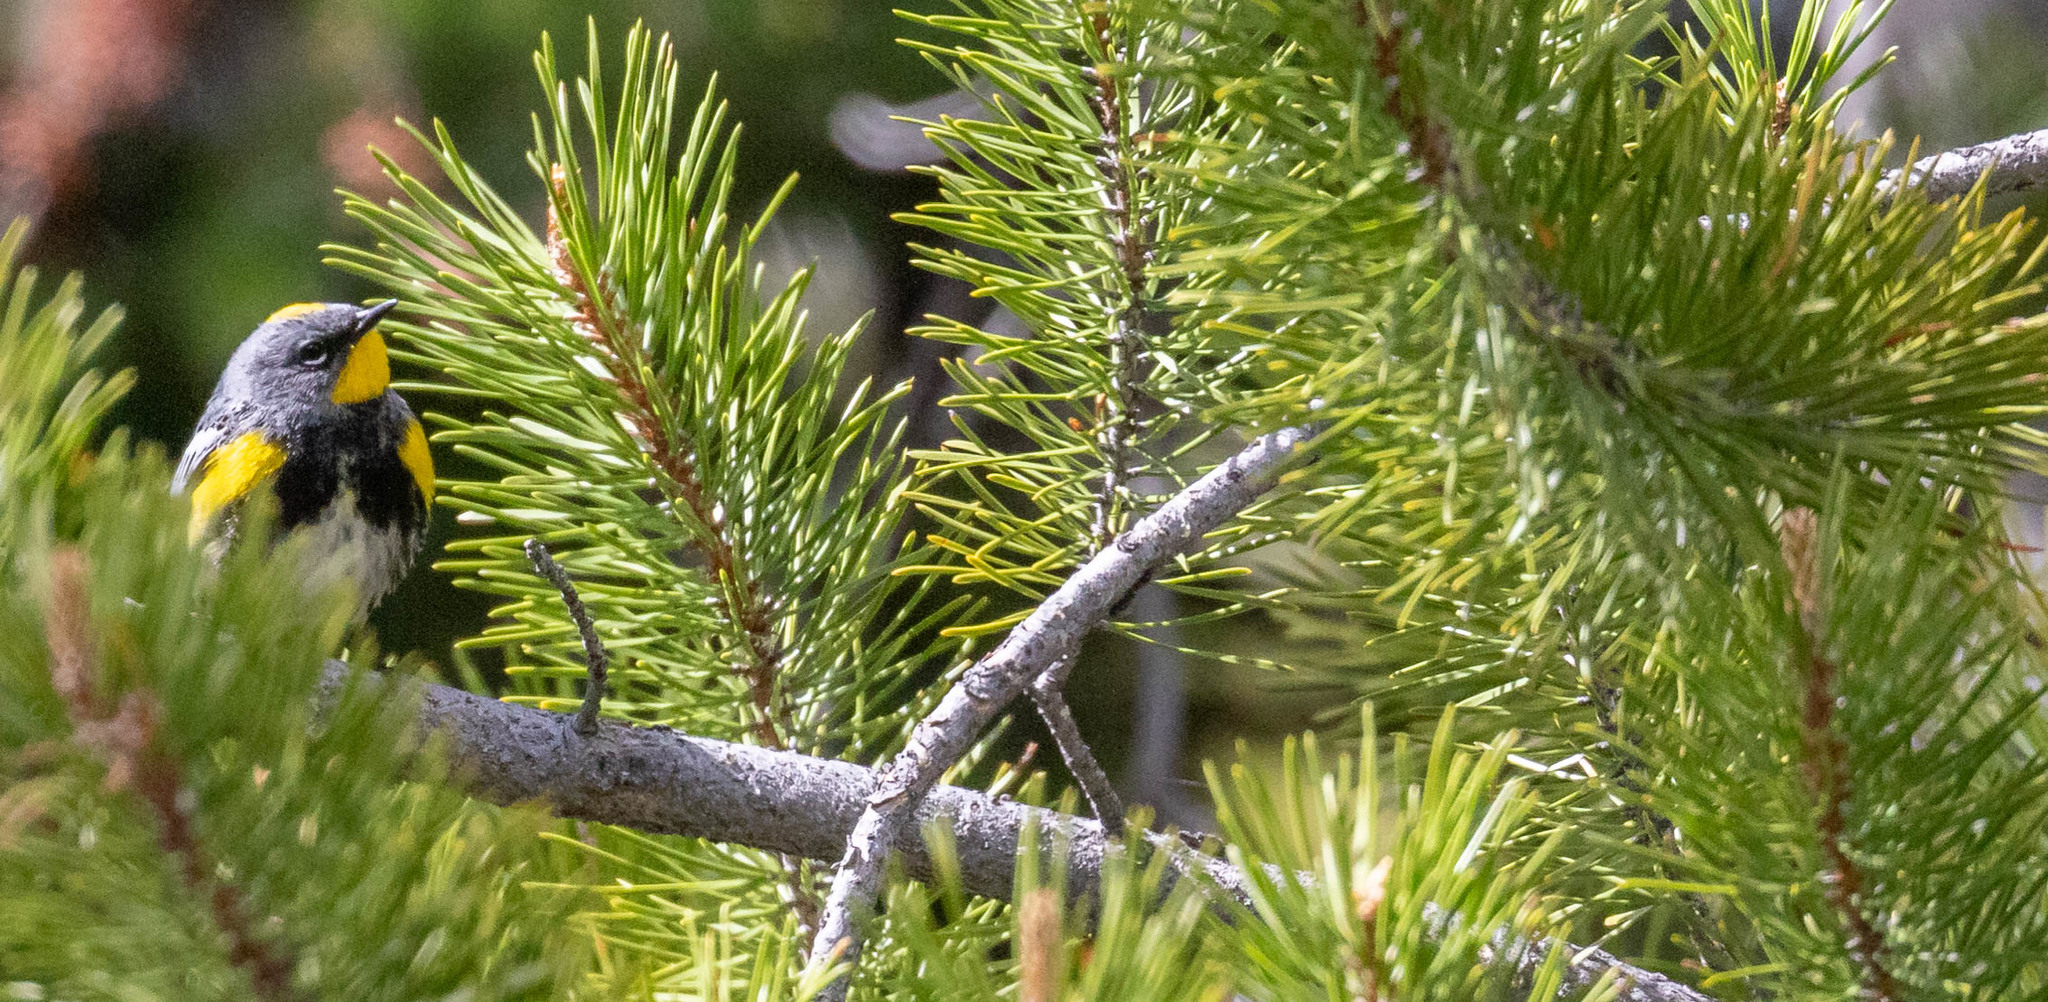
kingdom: Animalia
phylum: Chordata
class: Aves
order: Passeriformes
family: Parulidae
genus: Setophaga
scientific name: Setophaga coronata
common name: Myrtle warbler
